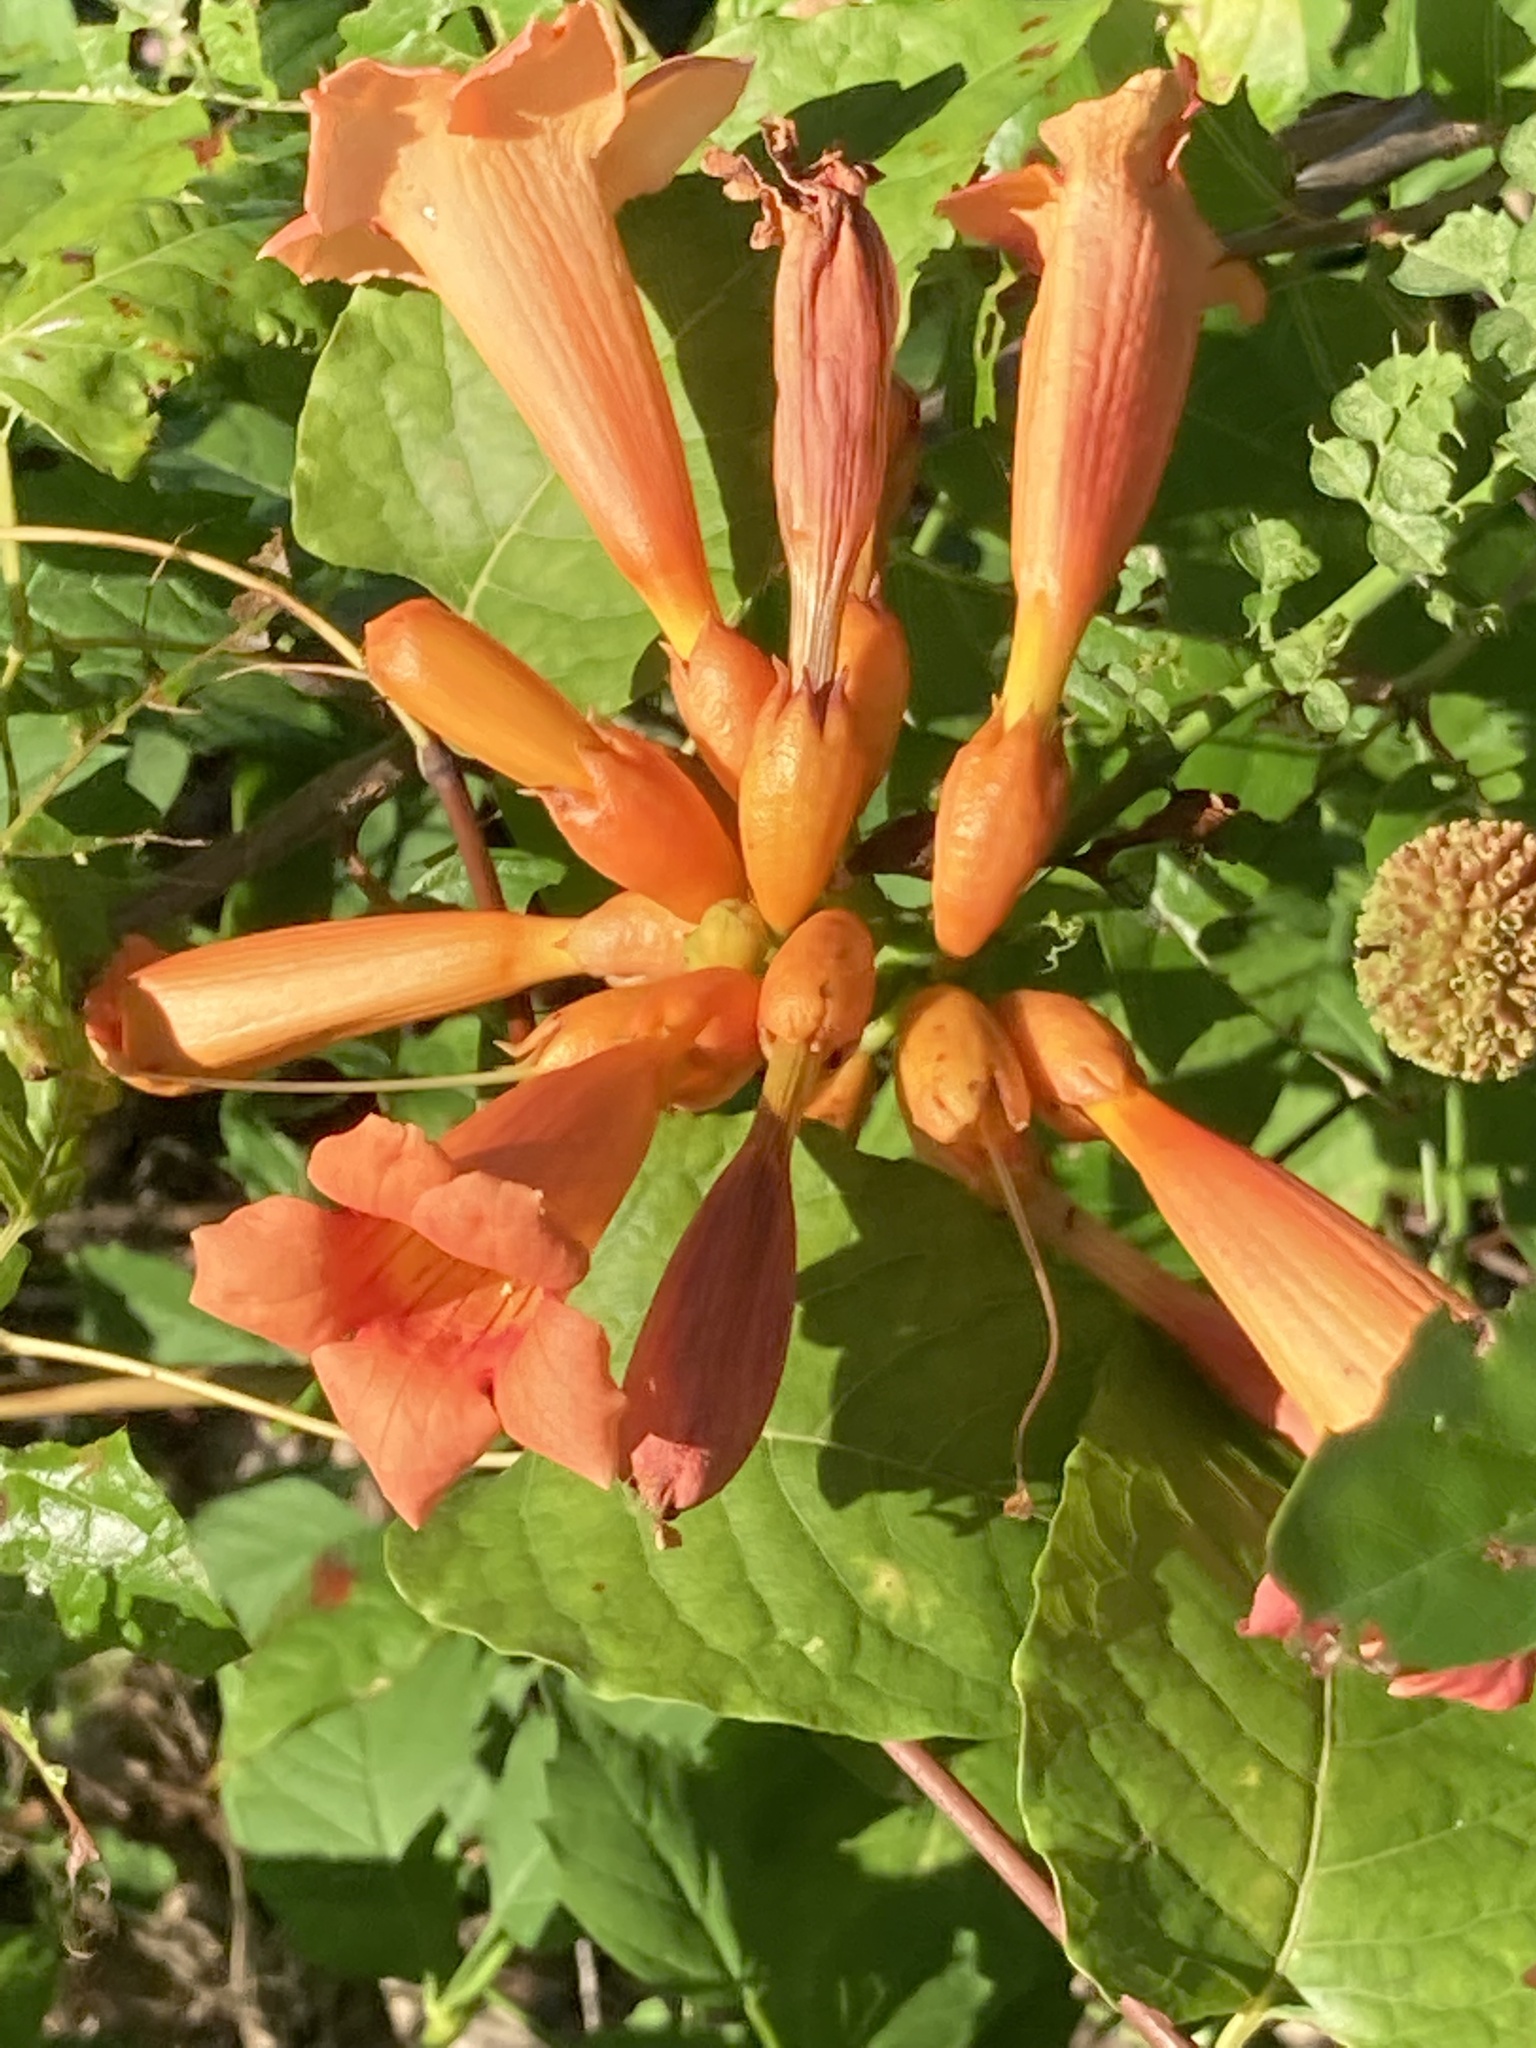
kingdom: Plantae
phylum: Tracheophyta
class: Magnoliopsida
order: Lamiales
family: Bignoniaceae
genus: Campsis
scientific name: Campsis radicans
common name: Trumpet-creeper
